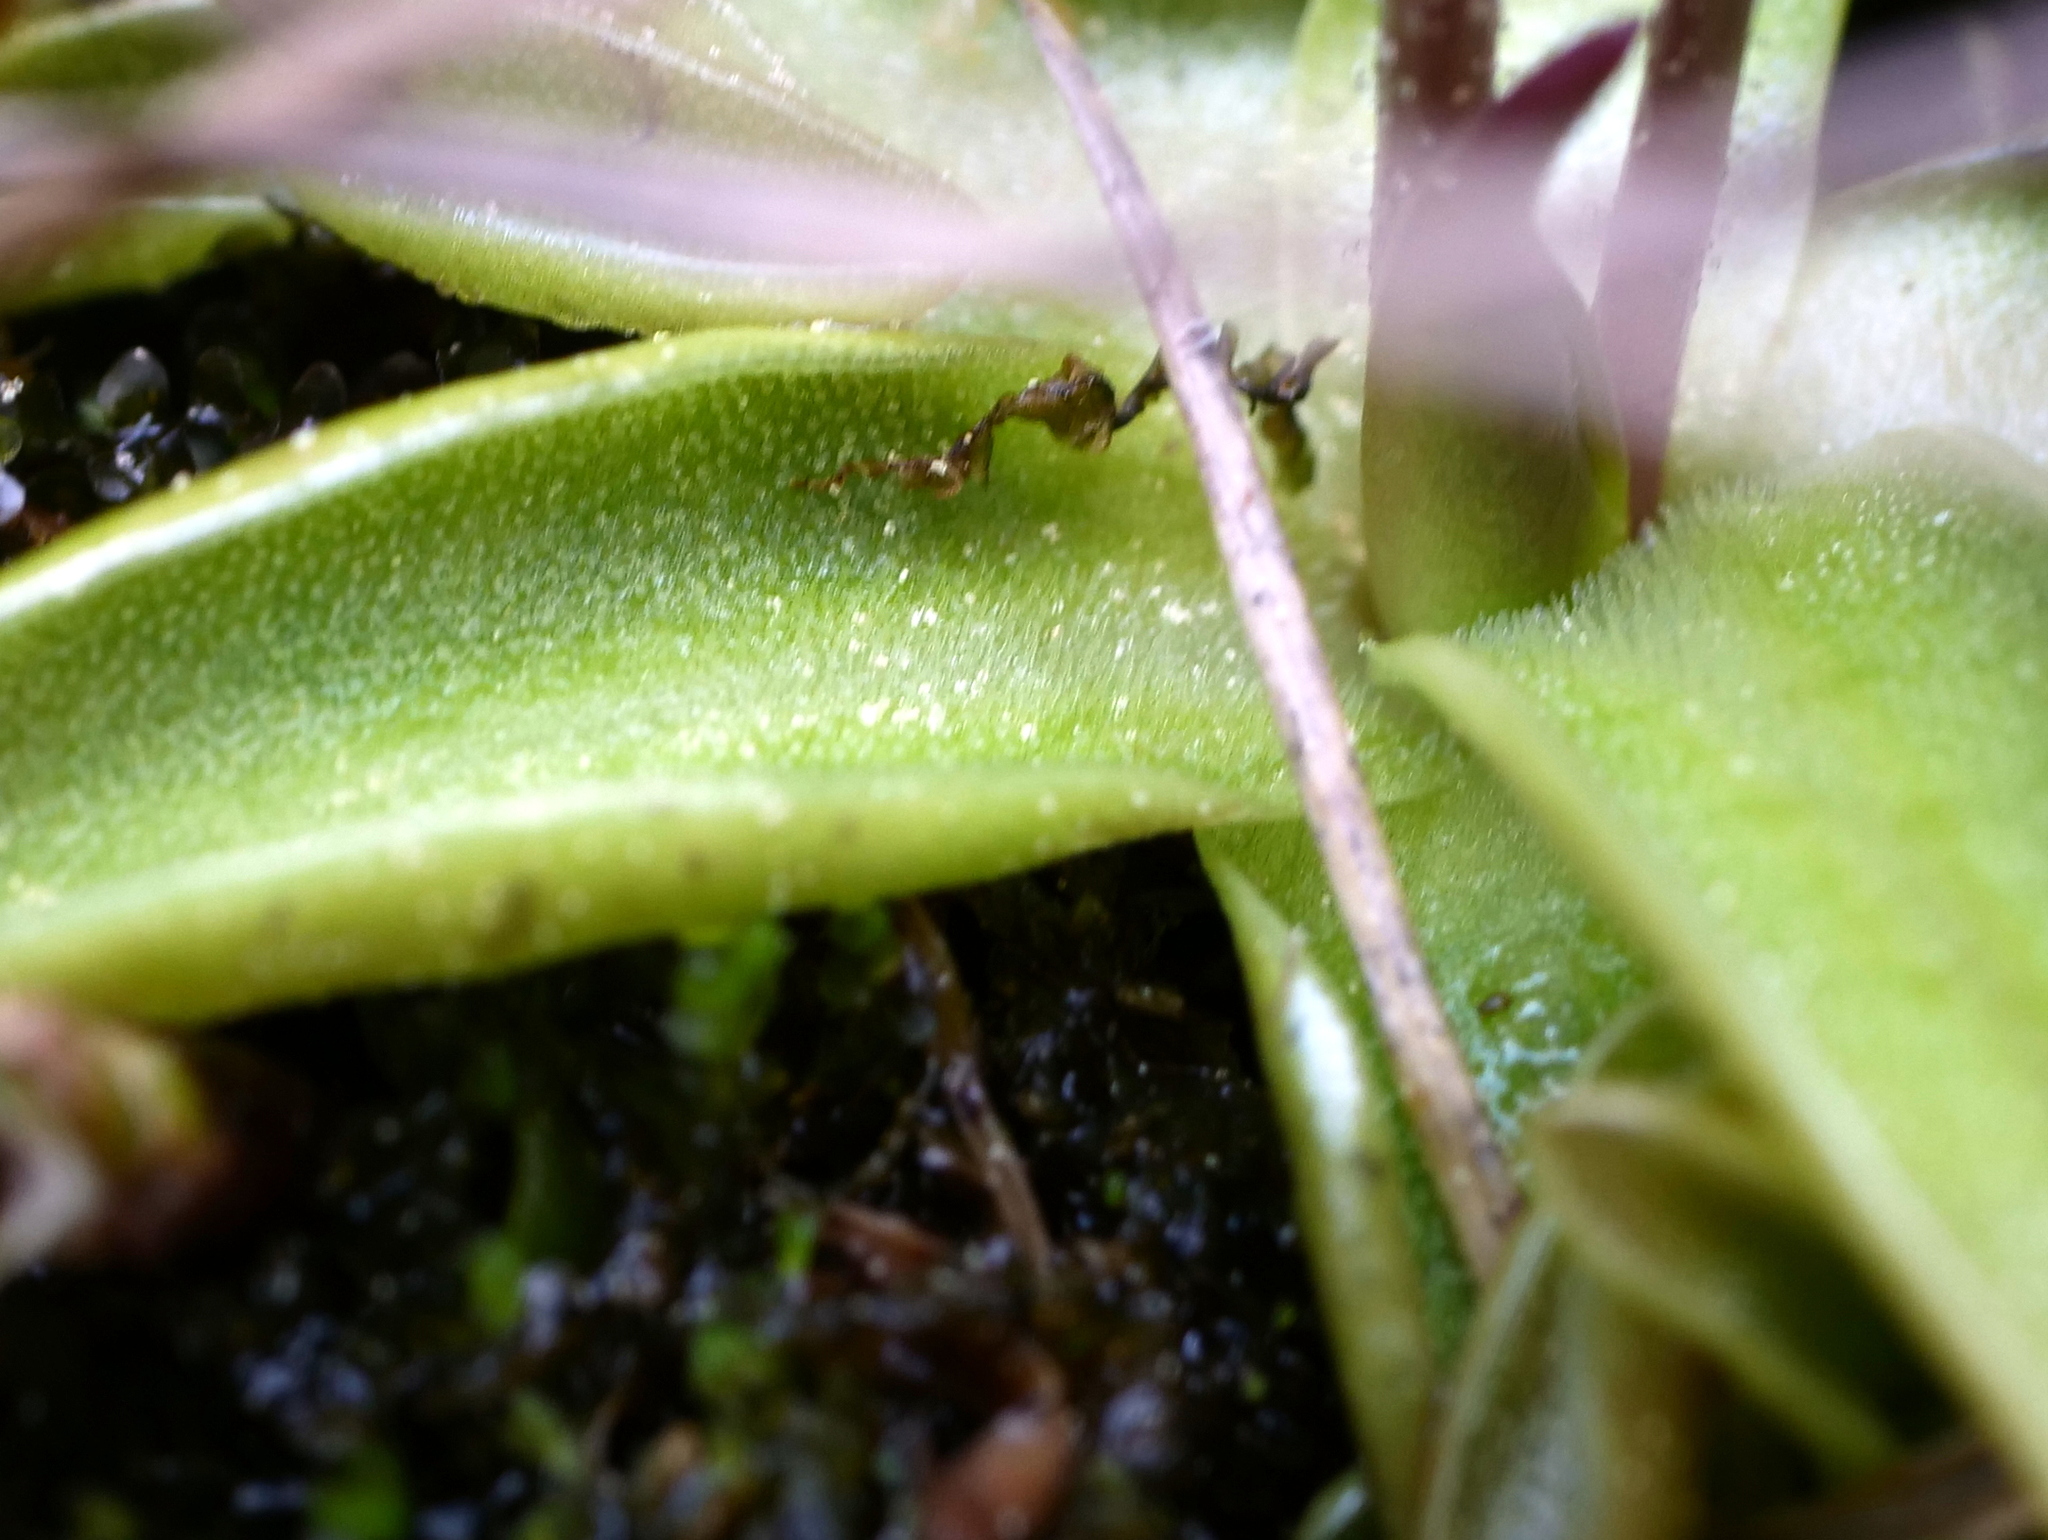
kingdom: Plantae
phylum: Tracheophyta
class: Magnoliopsida
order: Lamiales
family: Lentibulariaceae
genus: Pinguicula
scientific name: Pinguicula alpina
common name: Alpine butterwort
